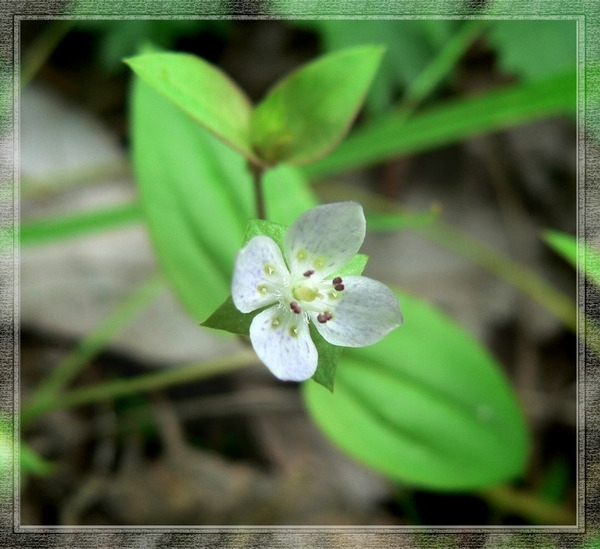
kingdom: Plantae
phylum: Tracheophyta
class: Magnoliopsida
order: Gentianales
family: Gentianaceae
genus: Swertia
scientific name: Swertia dichotoma
